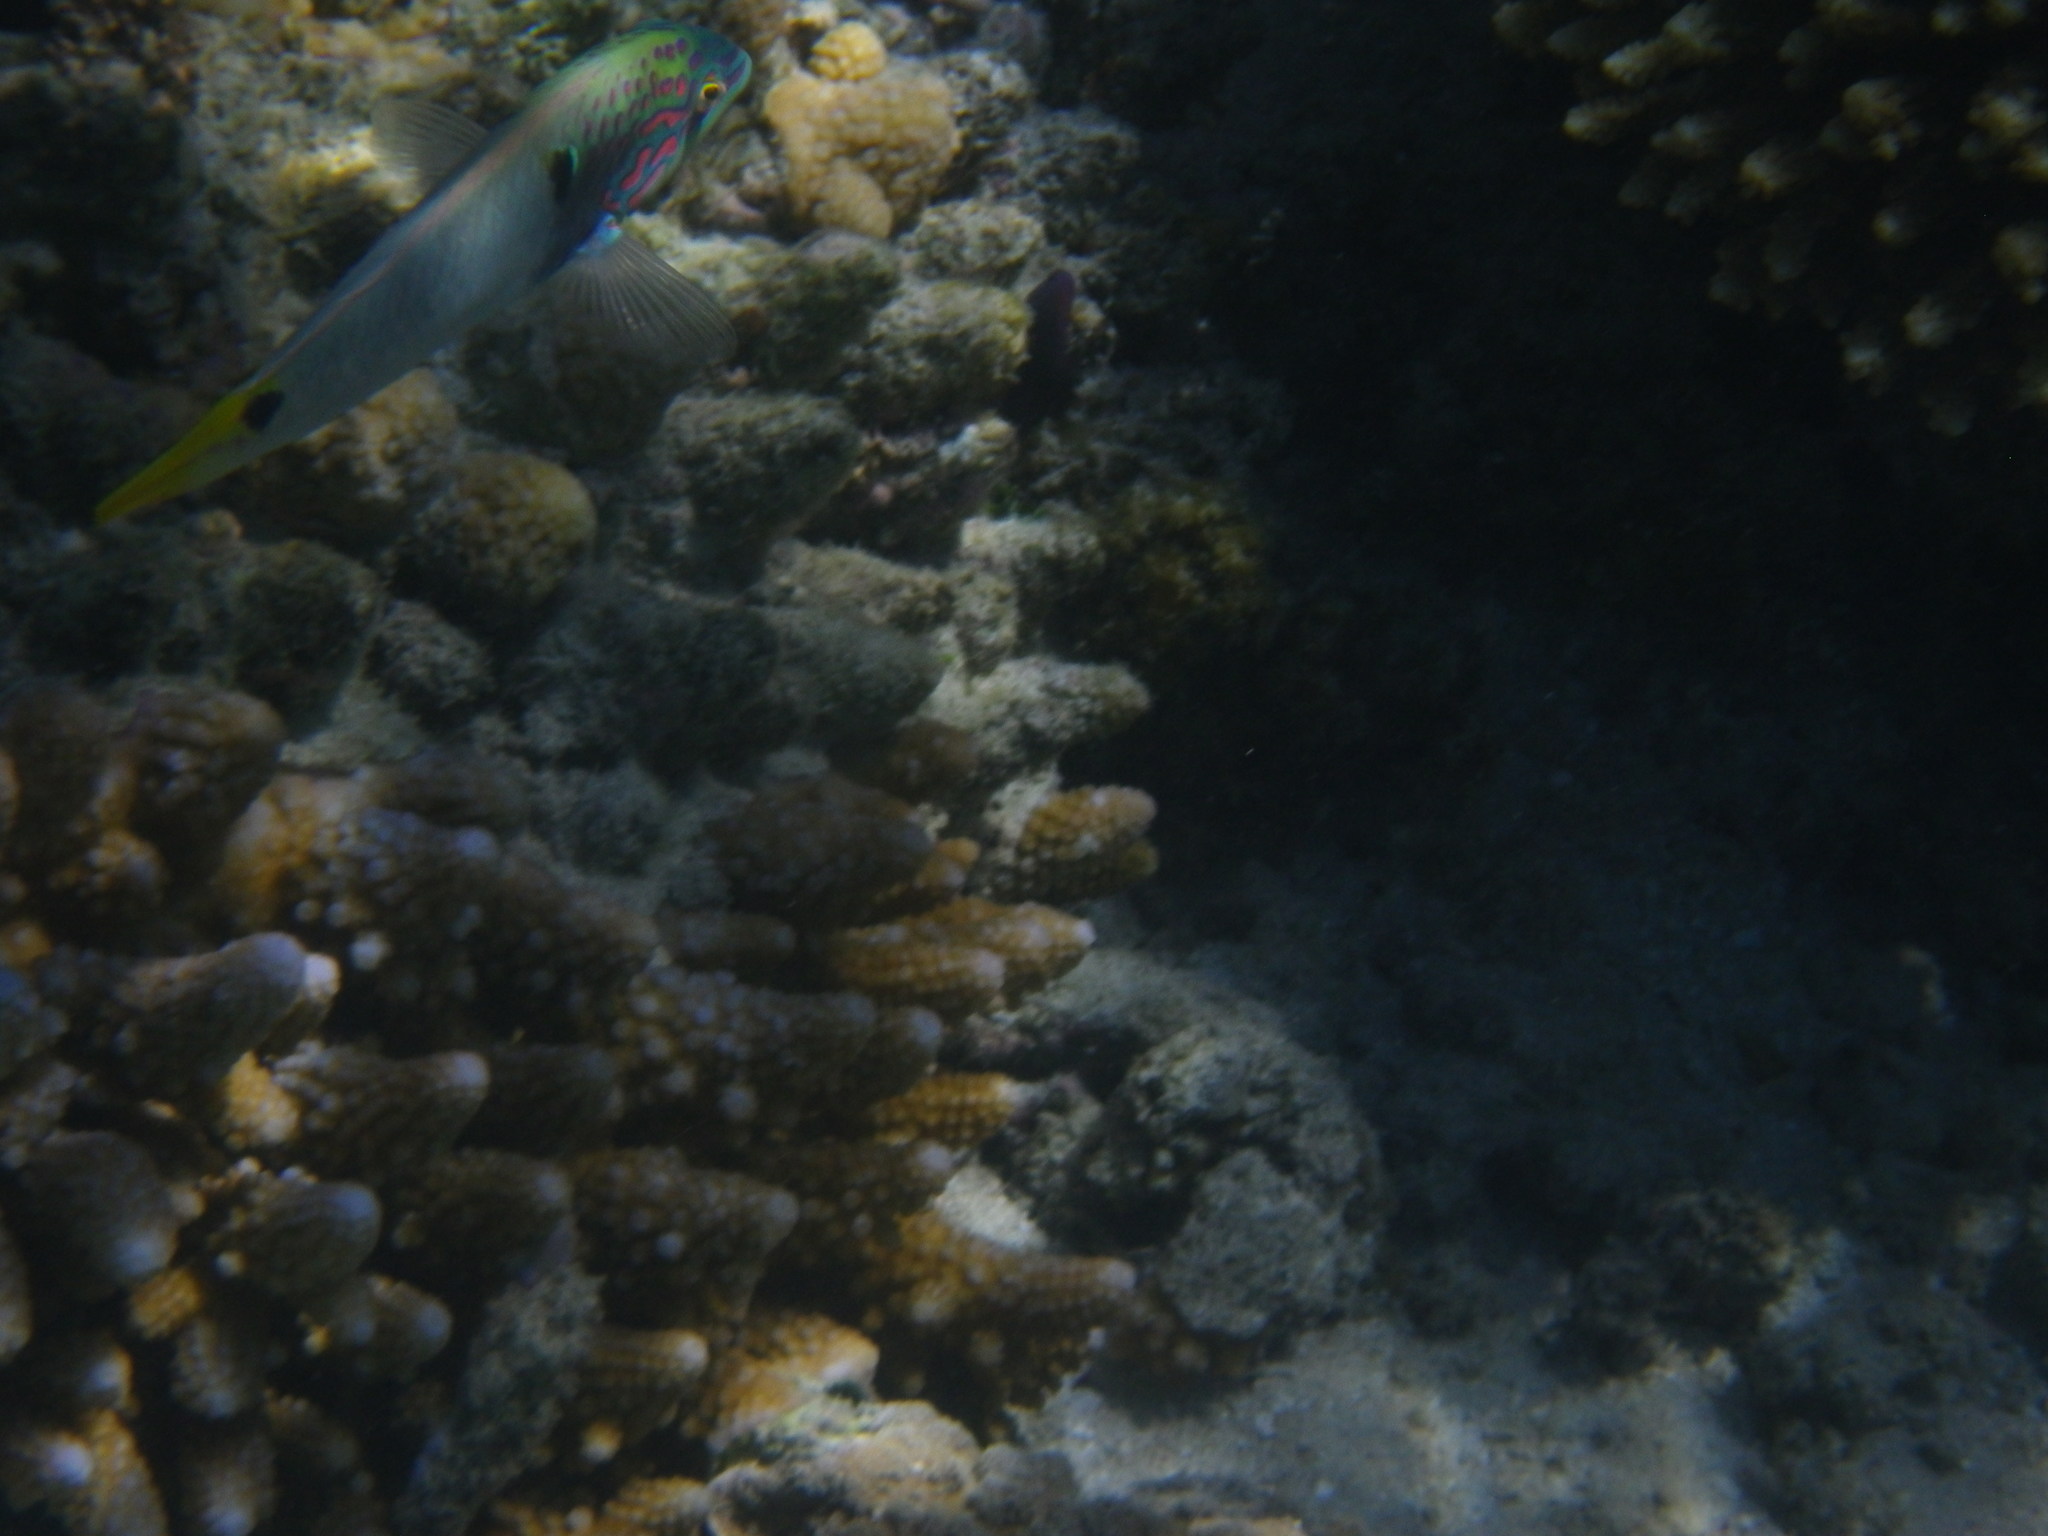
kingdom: Animalia
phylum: Chordata
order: Perciformes
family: Labridae
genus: Halichoeres
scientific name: Halichoeres trimaculatus
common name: Three-spot wrasse
